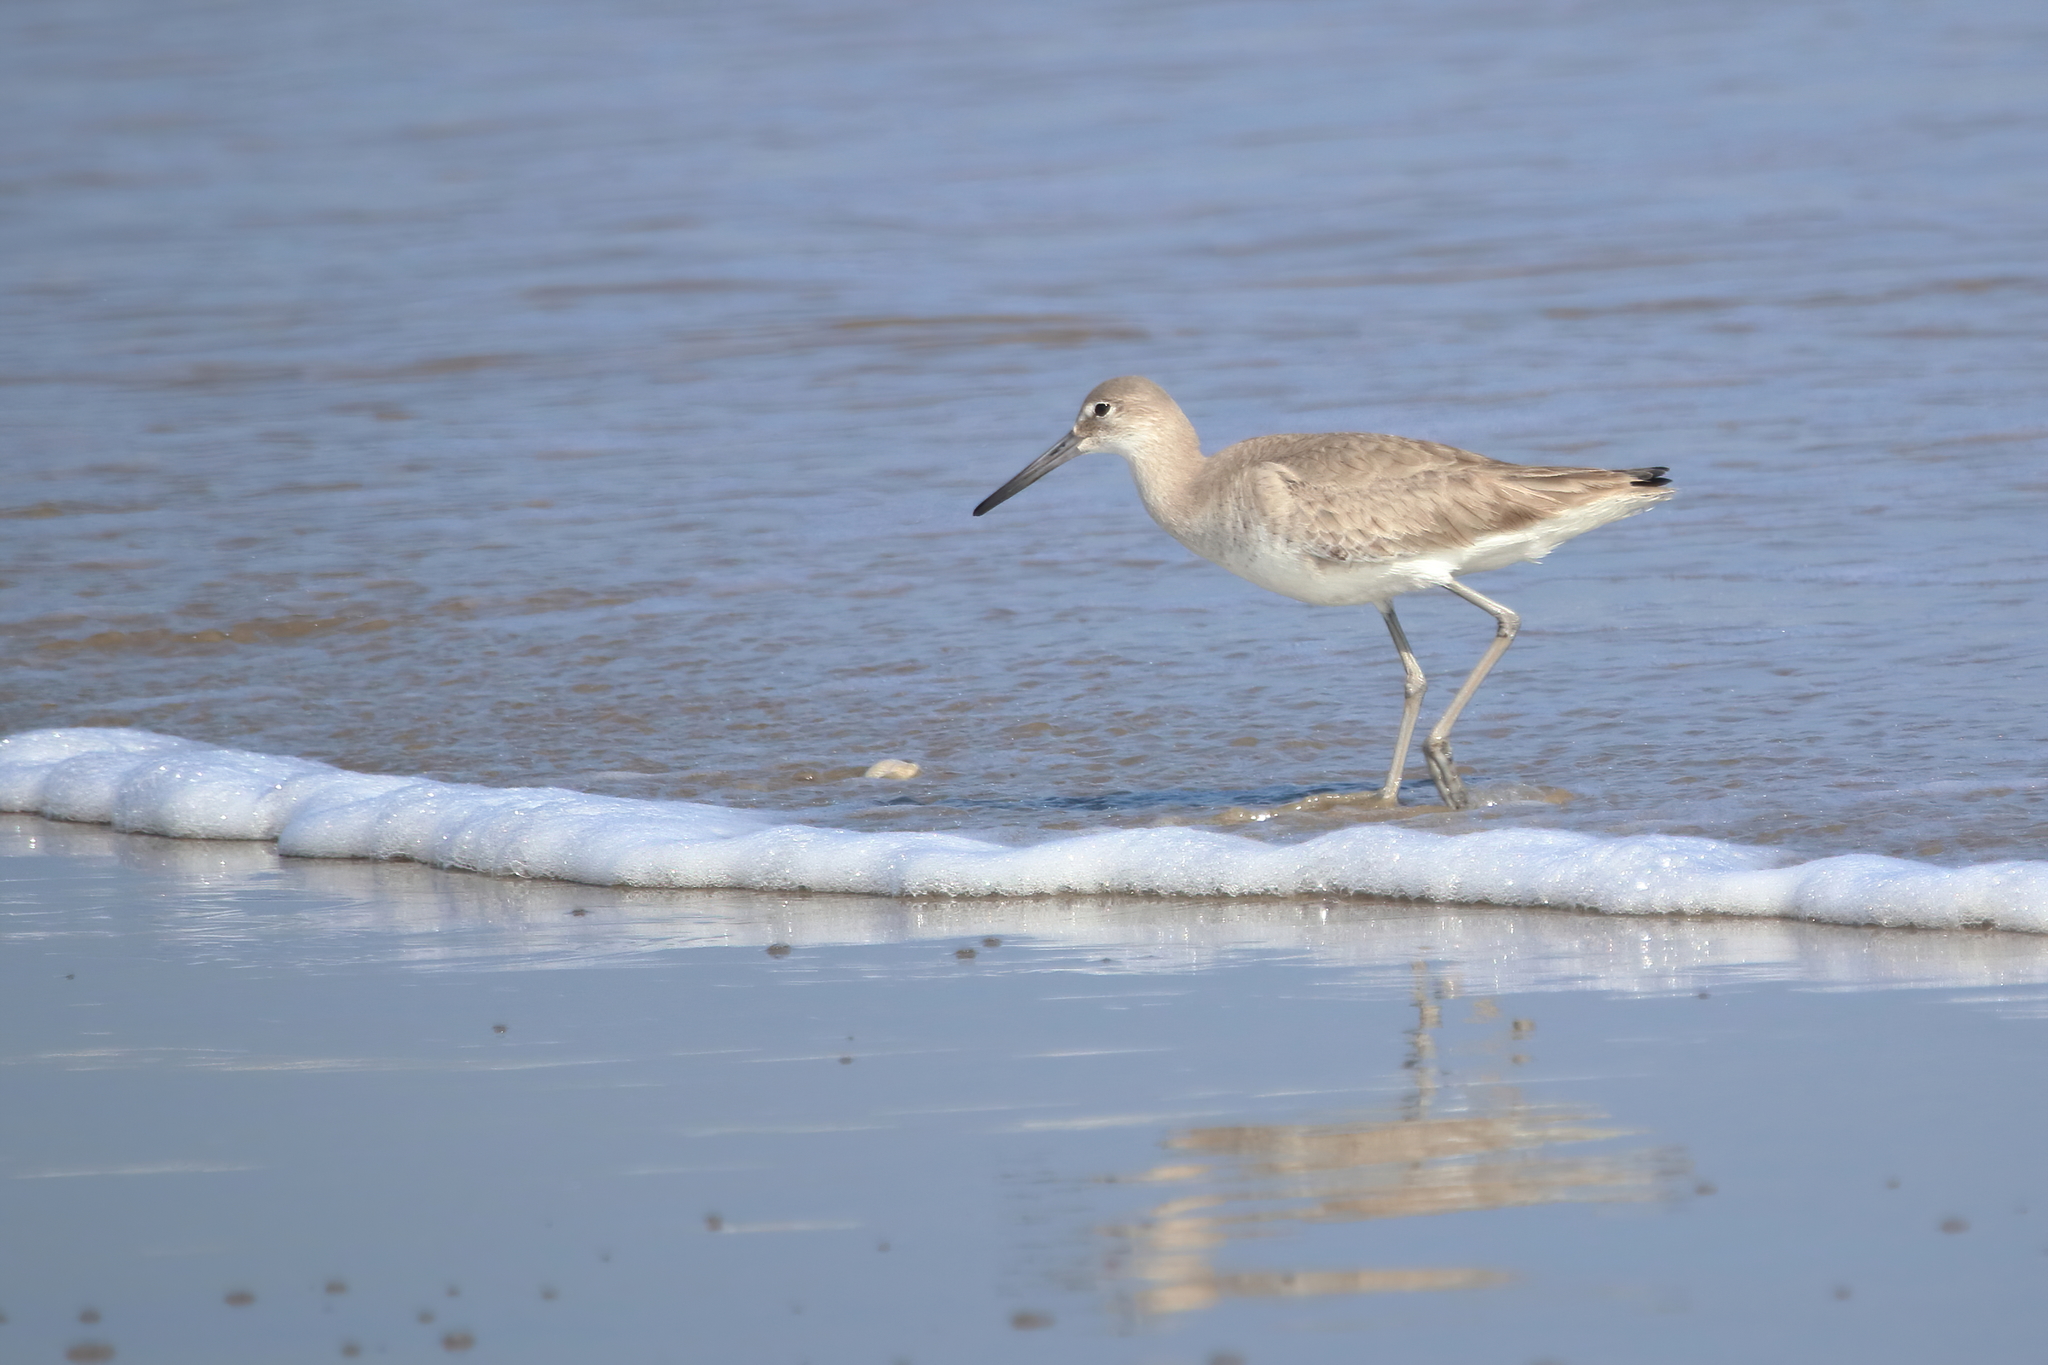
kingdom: Animalia
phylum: Chordata
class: Aves
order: Charadriiformes
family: Scolopacidae
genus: Tringa
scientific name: Tringa semipalmata
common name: Willet
